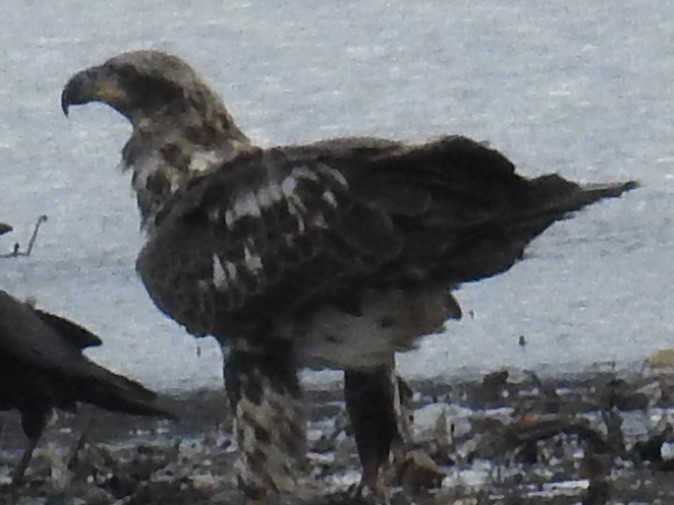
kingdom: Animalia
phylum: Chordata
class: Aves
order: Accipitriformes
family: Accipitridae
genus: Haliaeetus
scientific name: Haliaeetus leucocephalus
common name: Bald eagle
